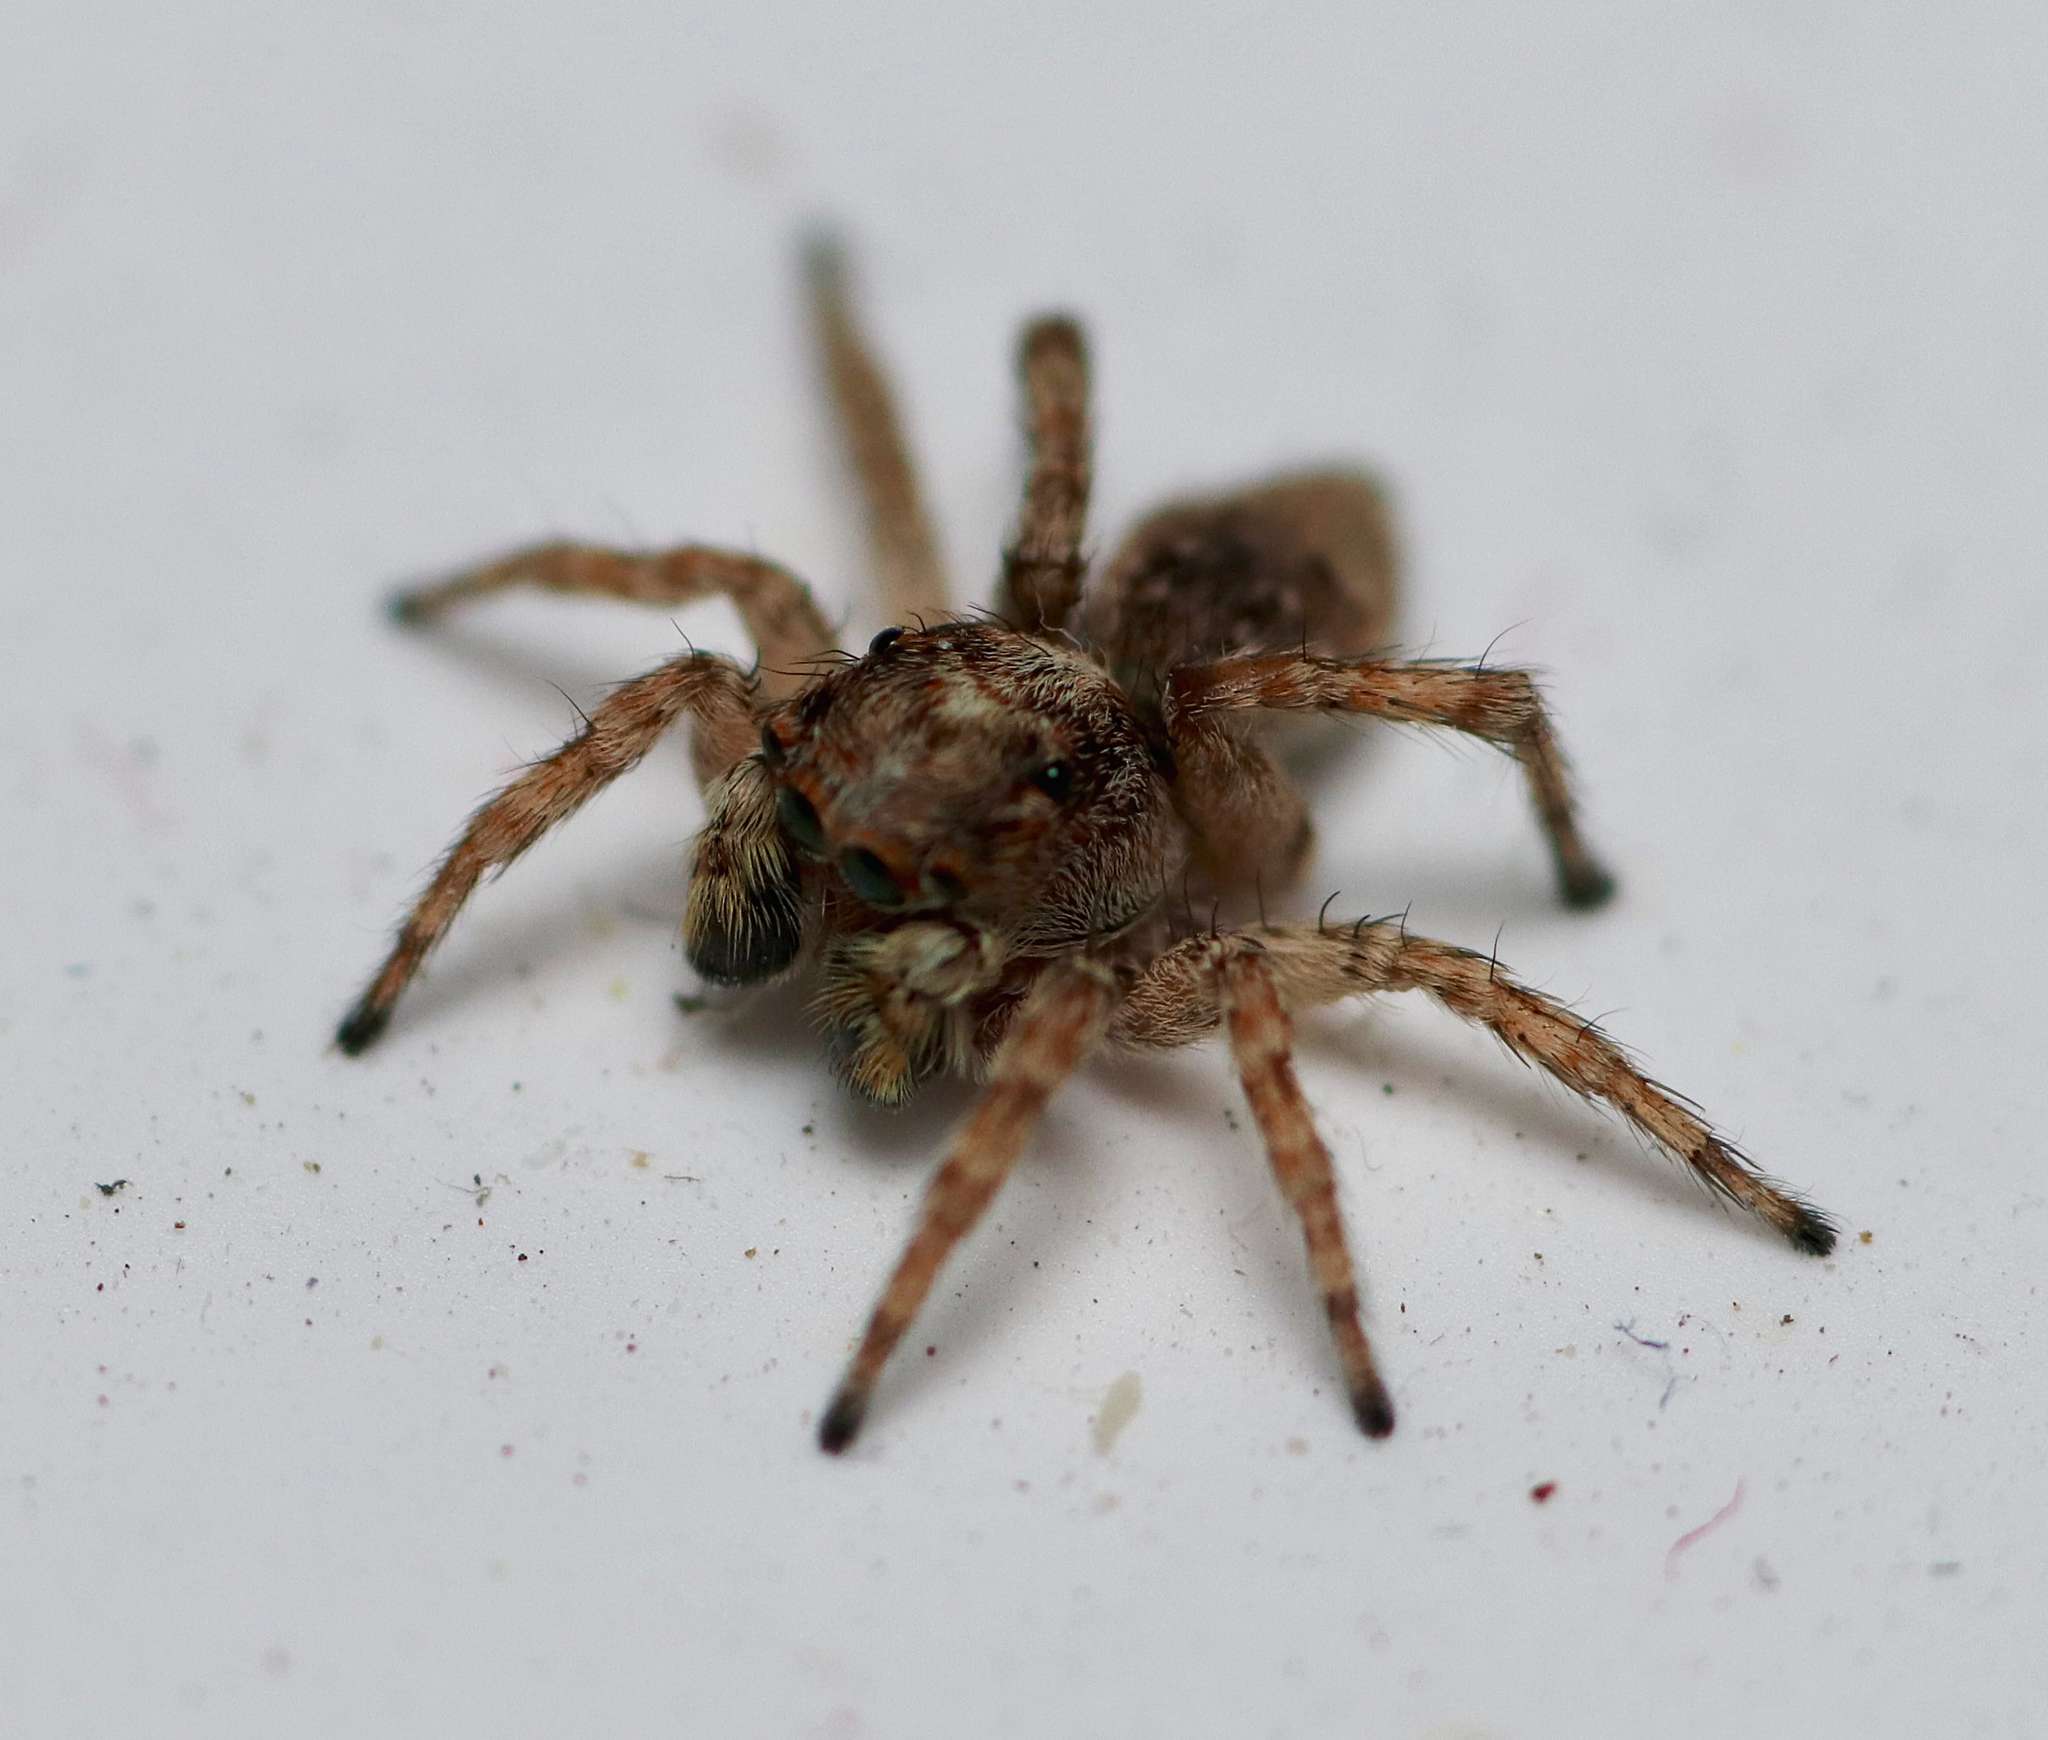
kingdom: Animalia
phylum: Arthropoda
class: Arachnida
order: Araneae
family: Salticidae
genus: Attulus
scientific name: Attulus fasciger
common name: Asiatic wall jumping spider
